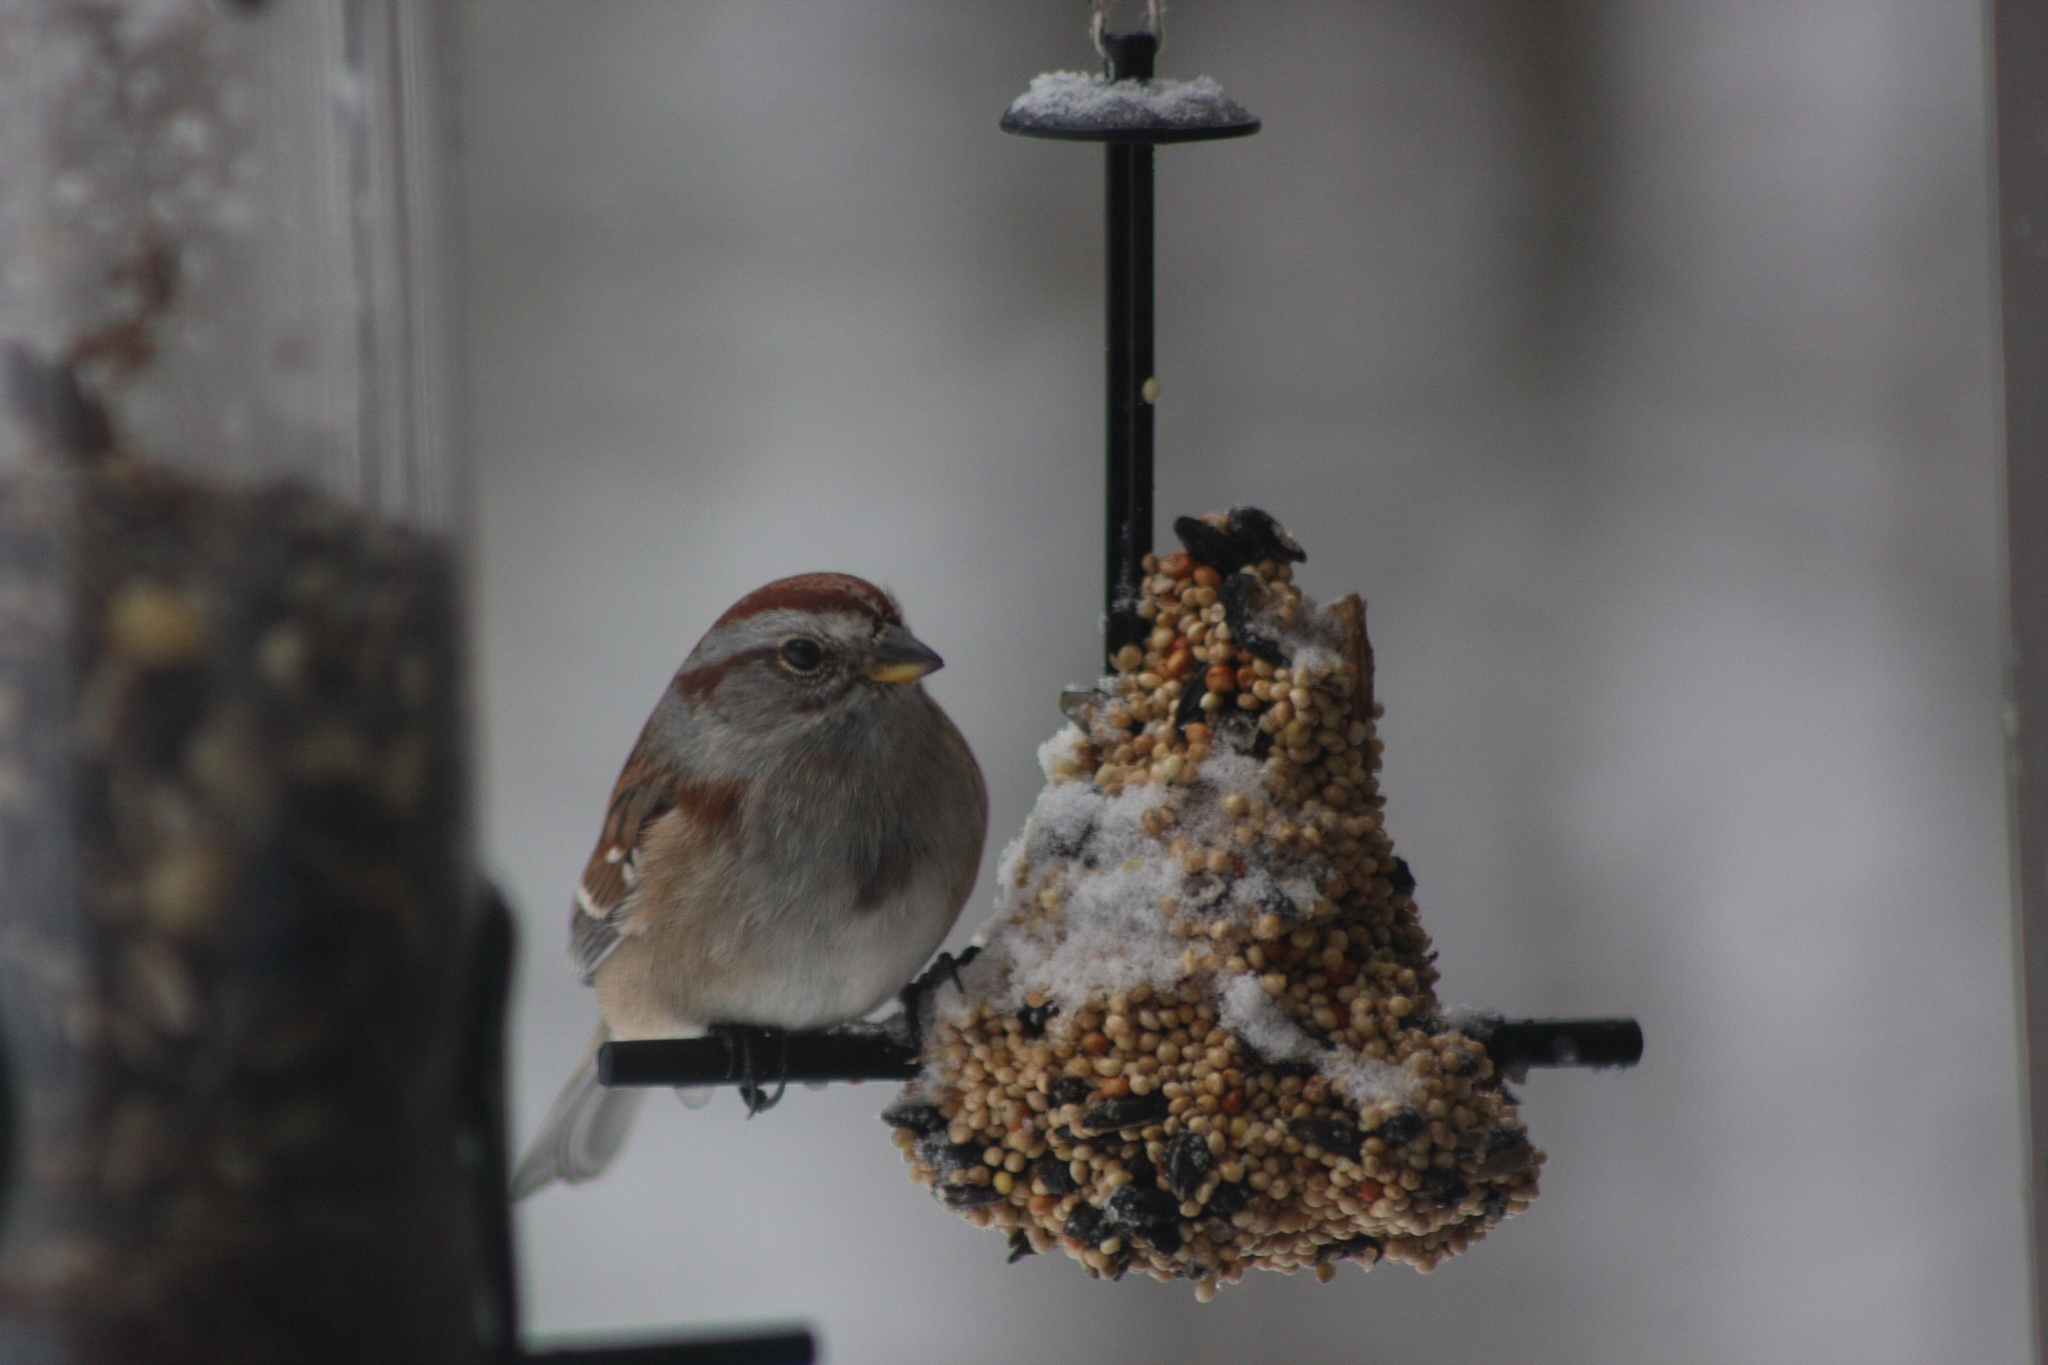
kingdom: Animalia
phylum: Chordata
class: Aves
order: Passeriformes
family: Passerellidae
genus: Spizelloides
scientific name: Spizelloides arborea
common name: American tree sparrow
